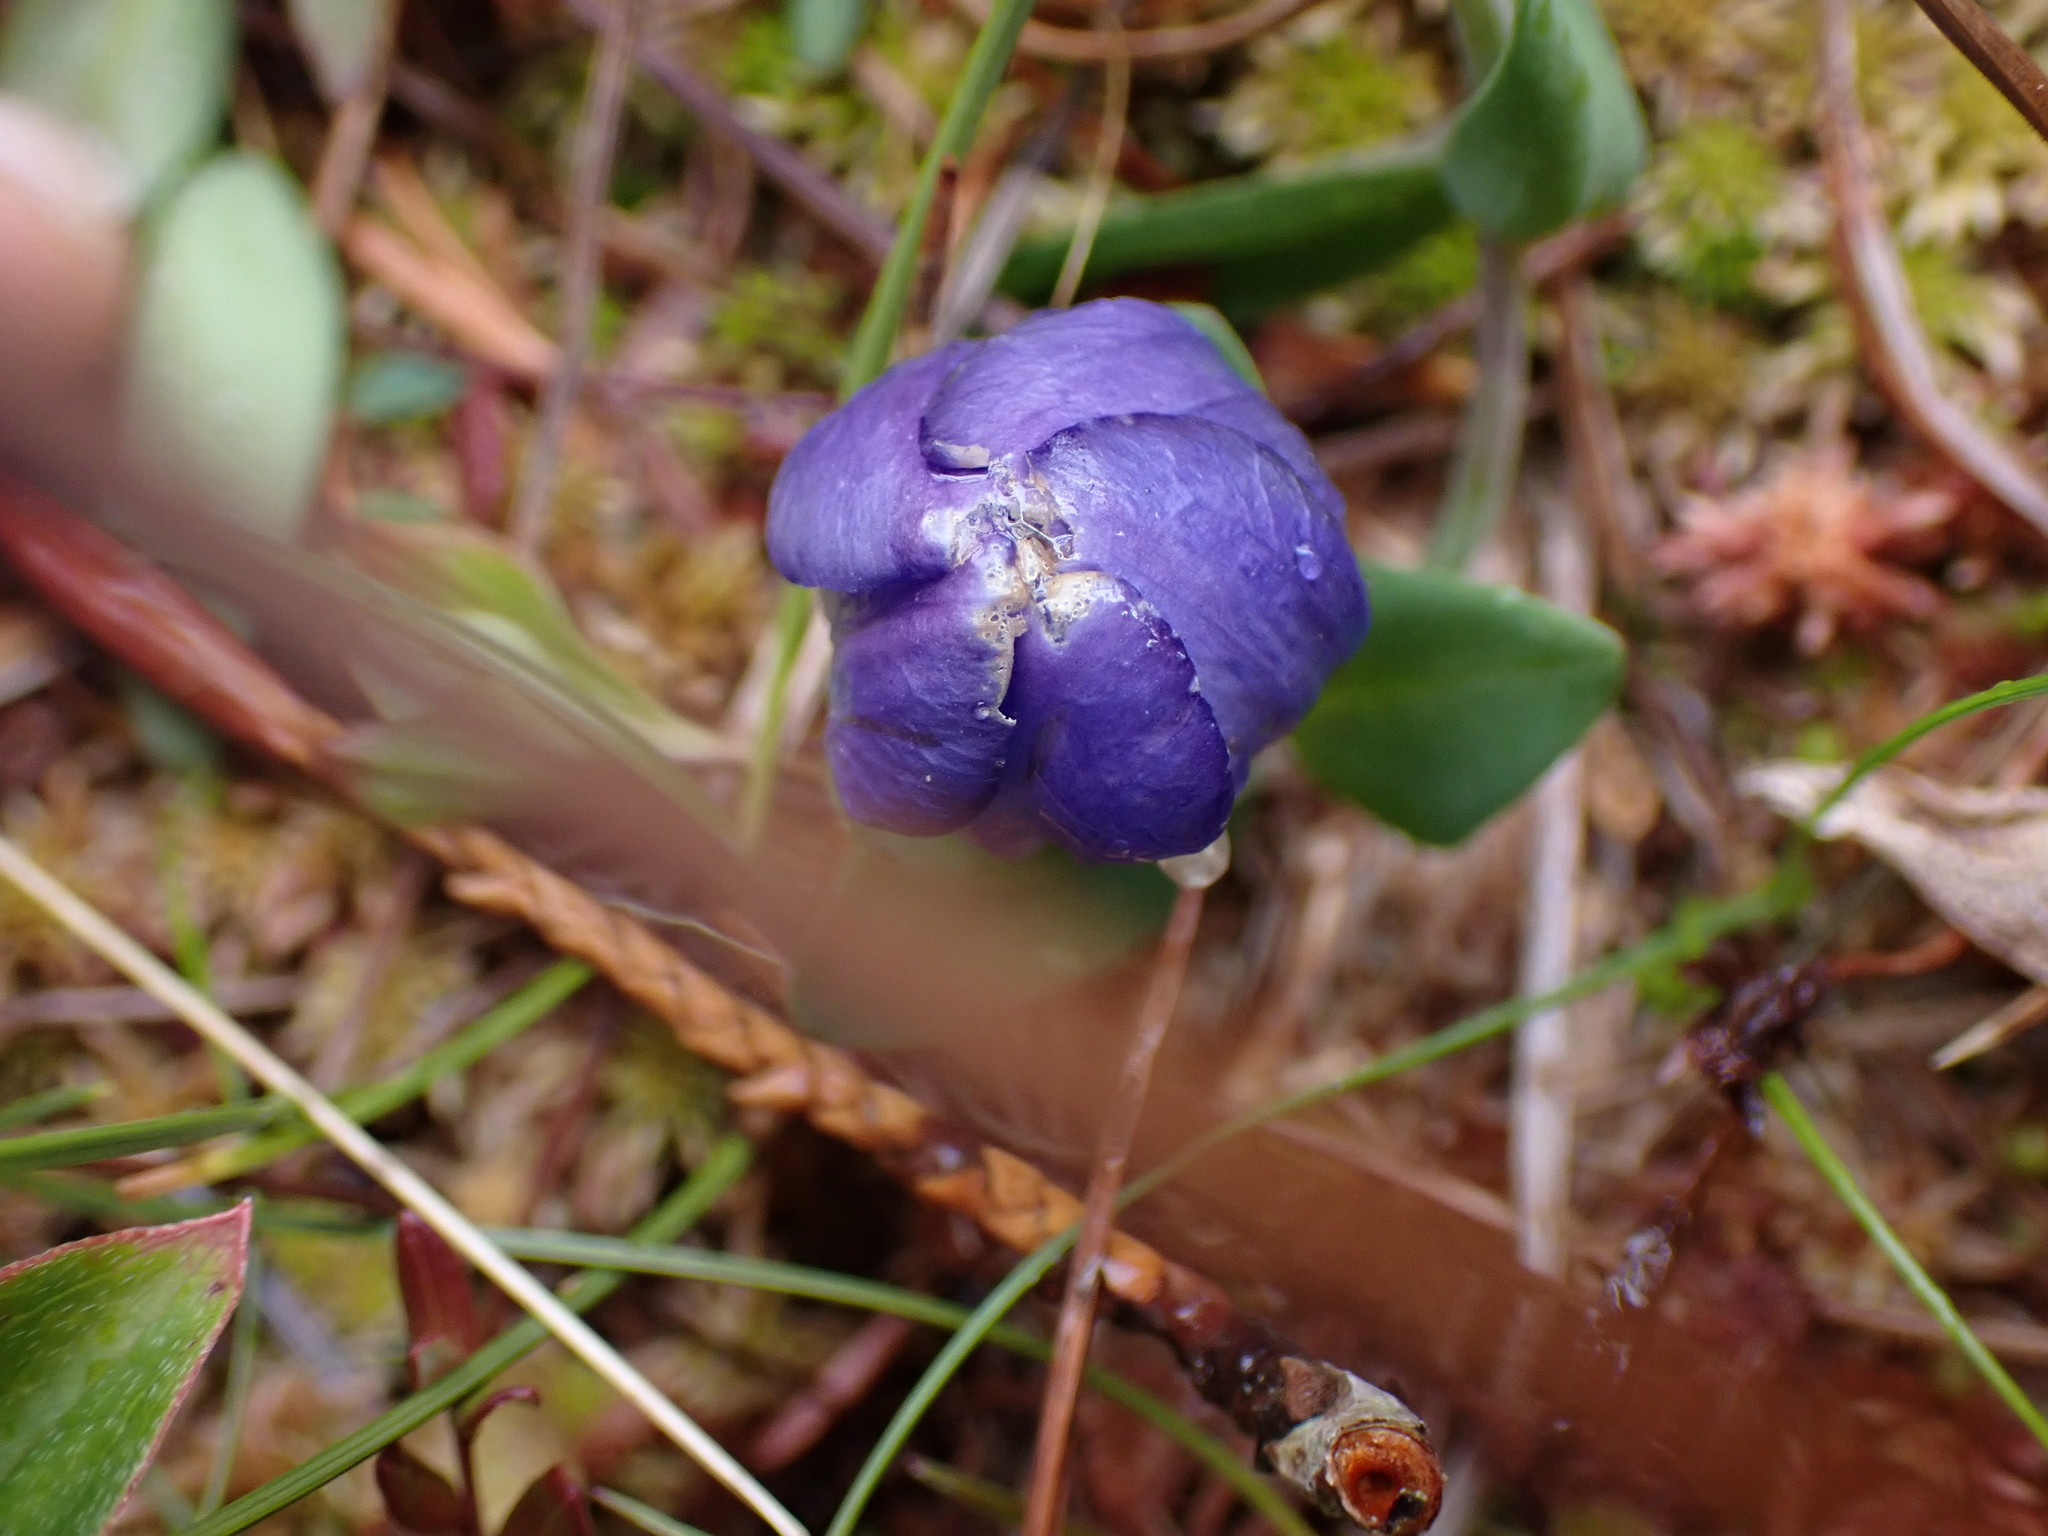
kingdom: Plantae
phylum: Tracheophyta
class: Magnoliopsida
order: Gentianales
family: Gentianaceae
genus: Gentiana
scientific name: Gentiana sceptrum
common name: Pacific gentian
